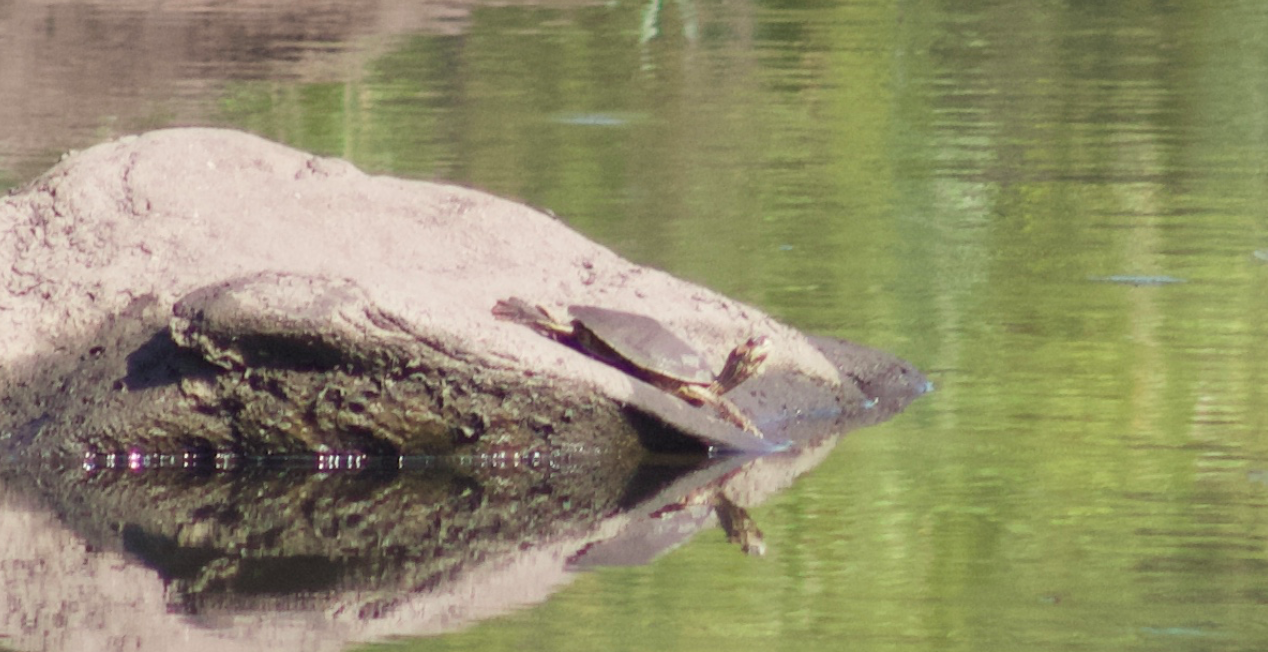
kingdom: Animalia
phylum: Chordata
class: Testudines
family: Emydidae
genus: Graptemys
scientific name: Graptemys pulchra
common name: Alabama map turtle
